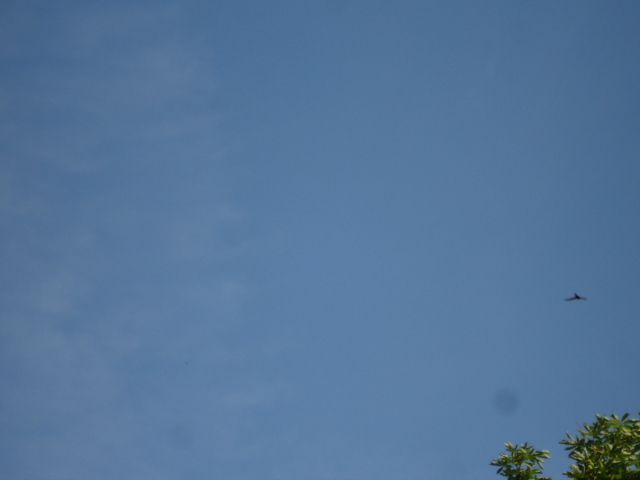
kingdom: Animalia
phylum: Chordata
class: Aves
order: Apodiformes
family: Apodidae
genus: Apus
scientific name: Apus apus
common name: Common swift
